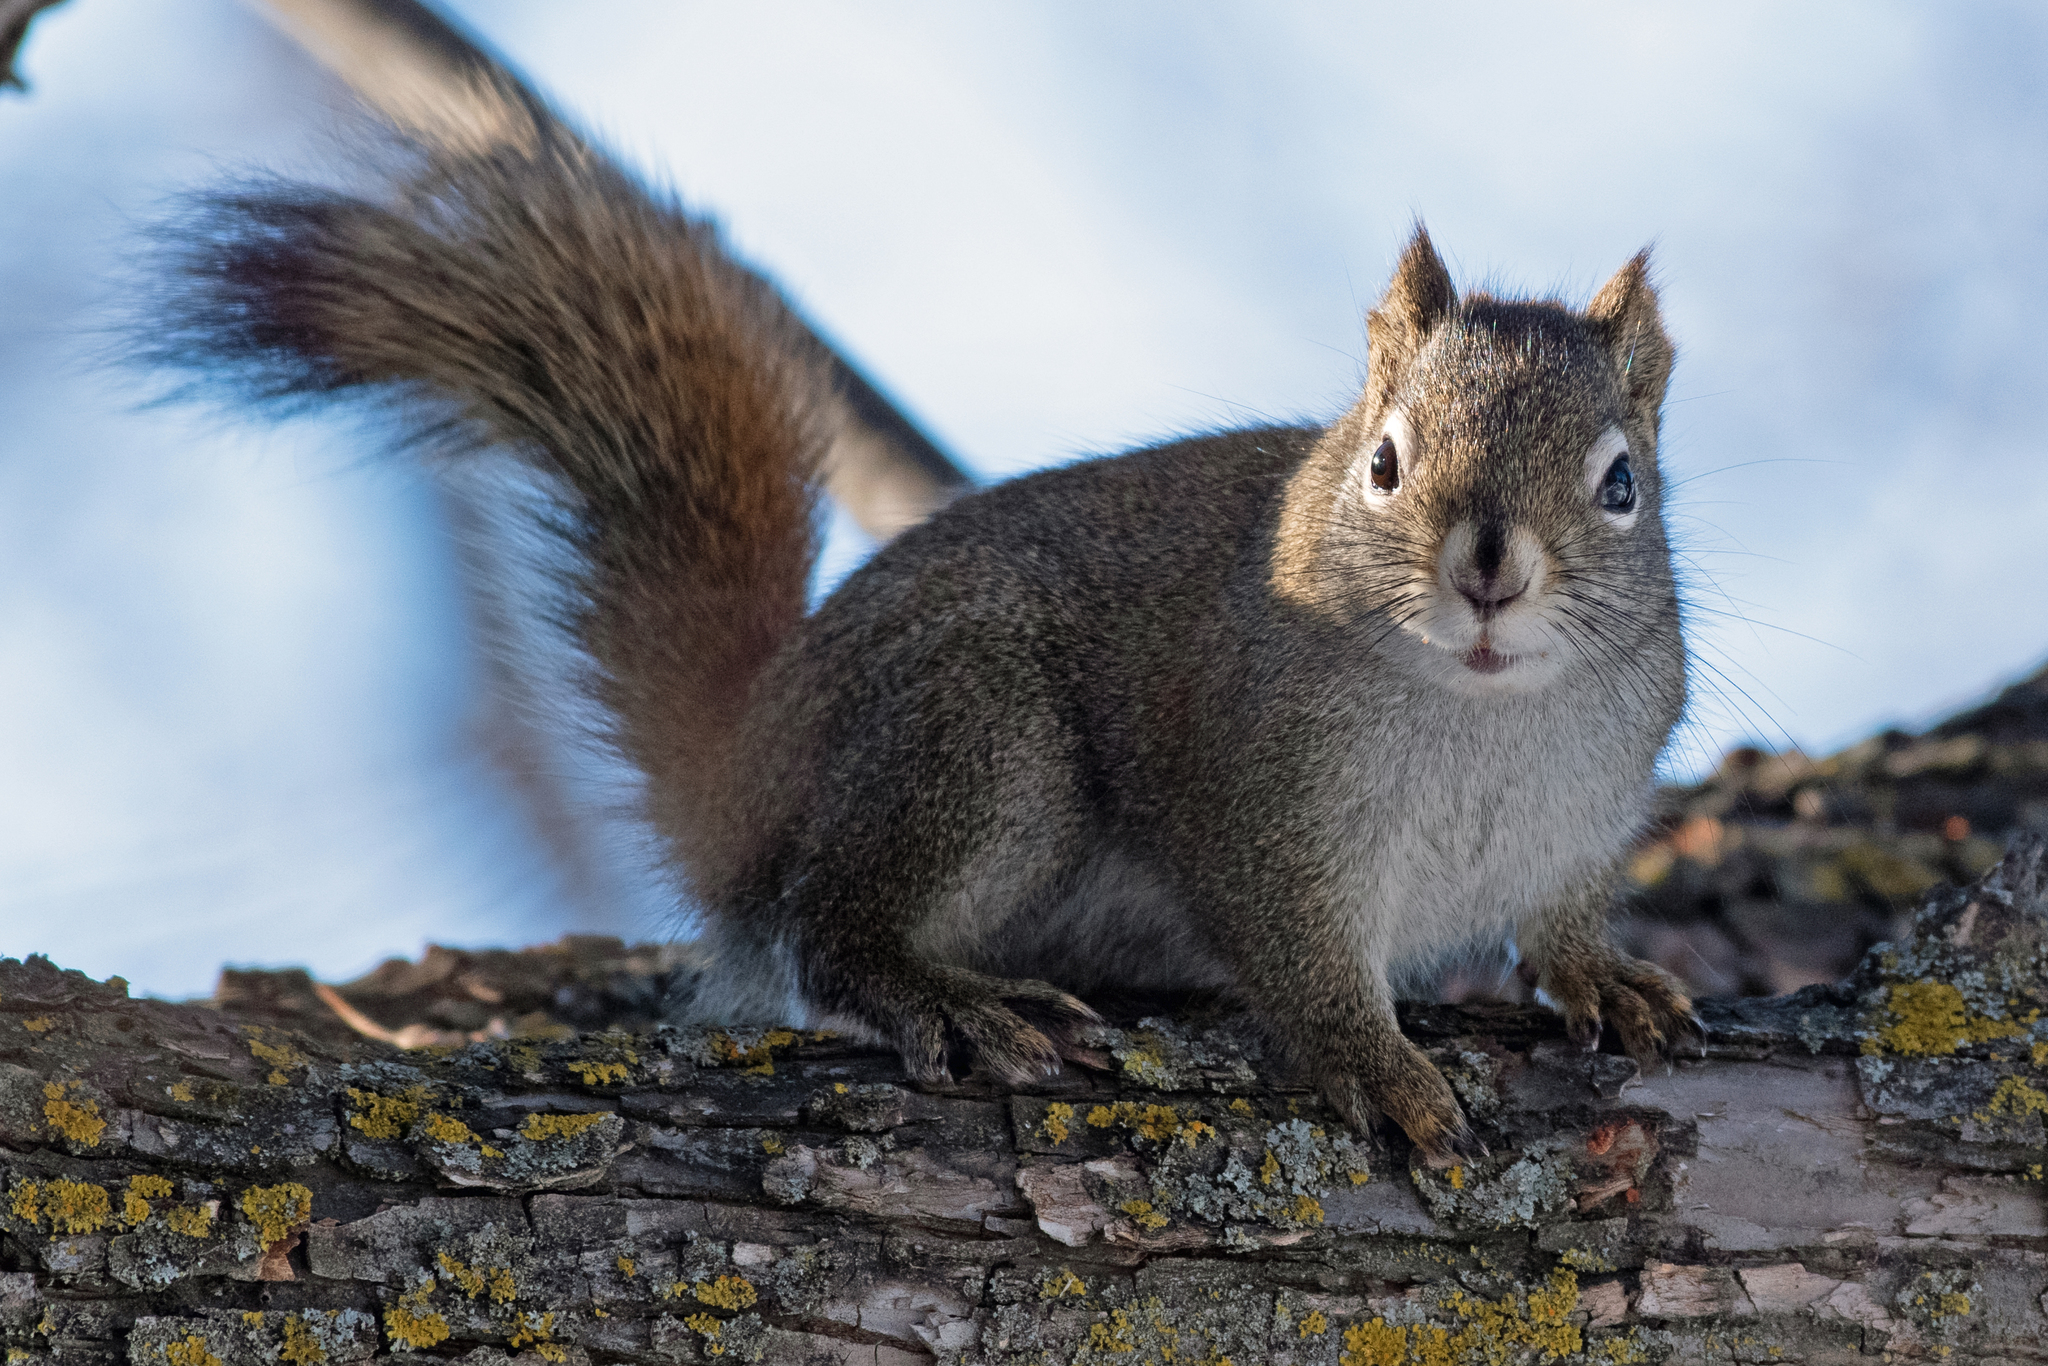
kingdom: Animalia
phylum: Chordata
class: Mammalia
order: Rodentia
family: Sciuridae
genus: Tamiasciurus
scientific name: Tamiasciurus hudsonicus
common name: Red squirrel
